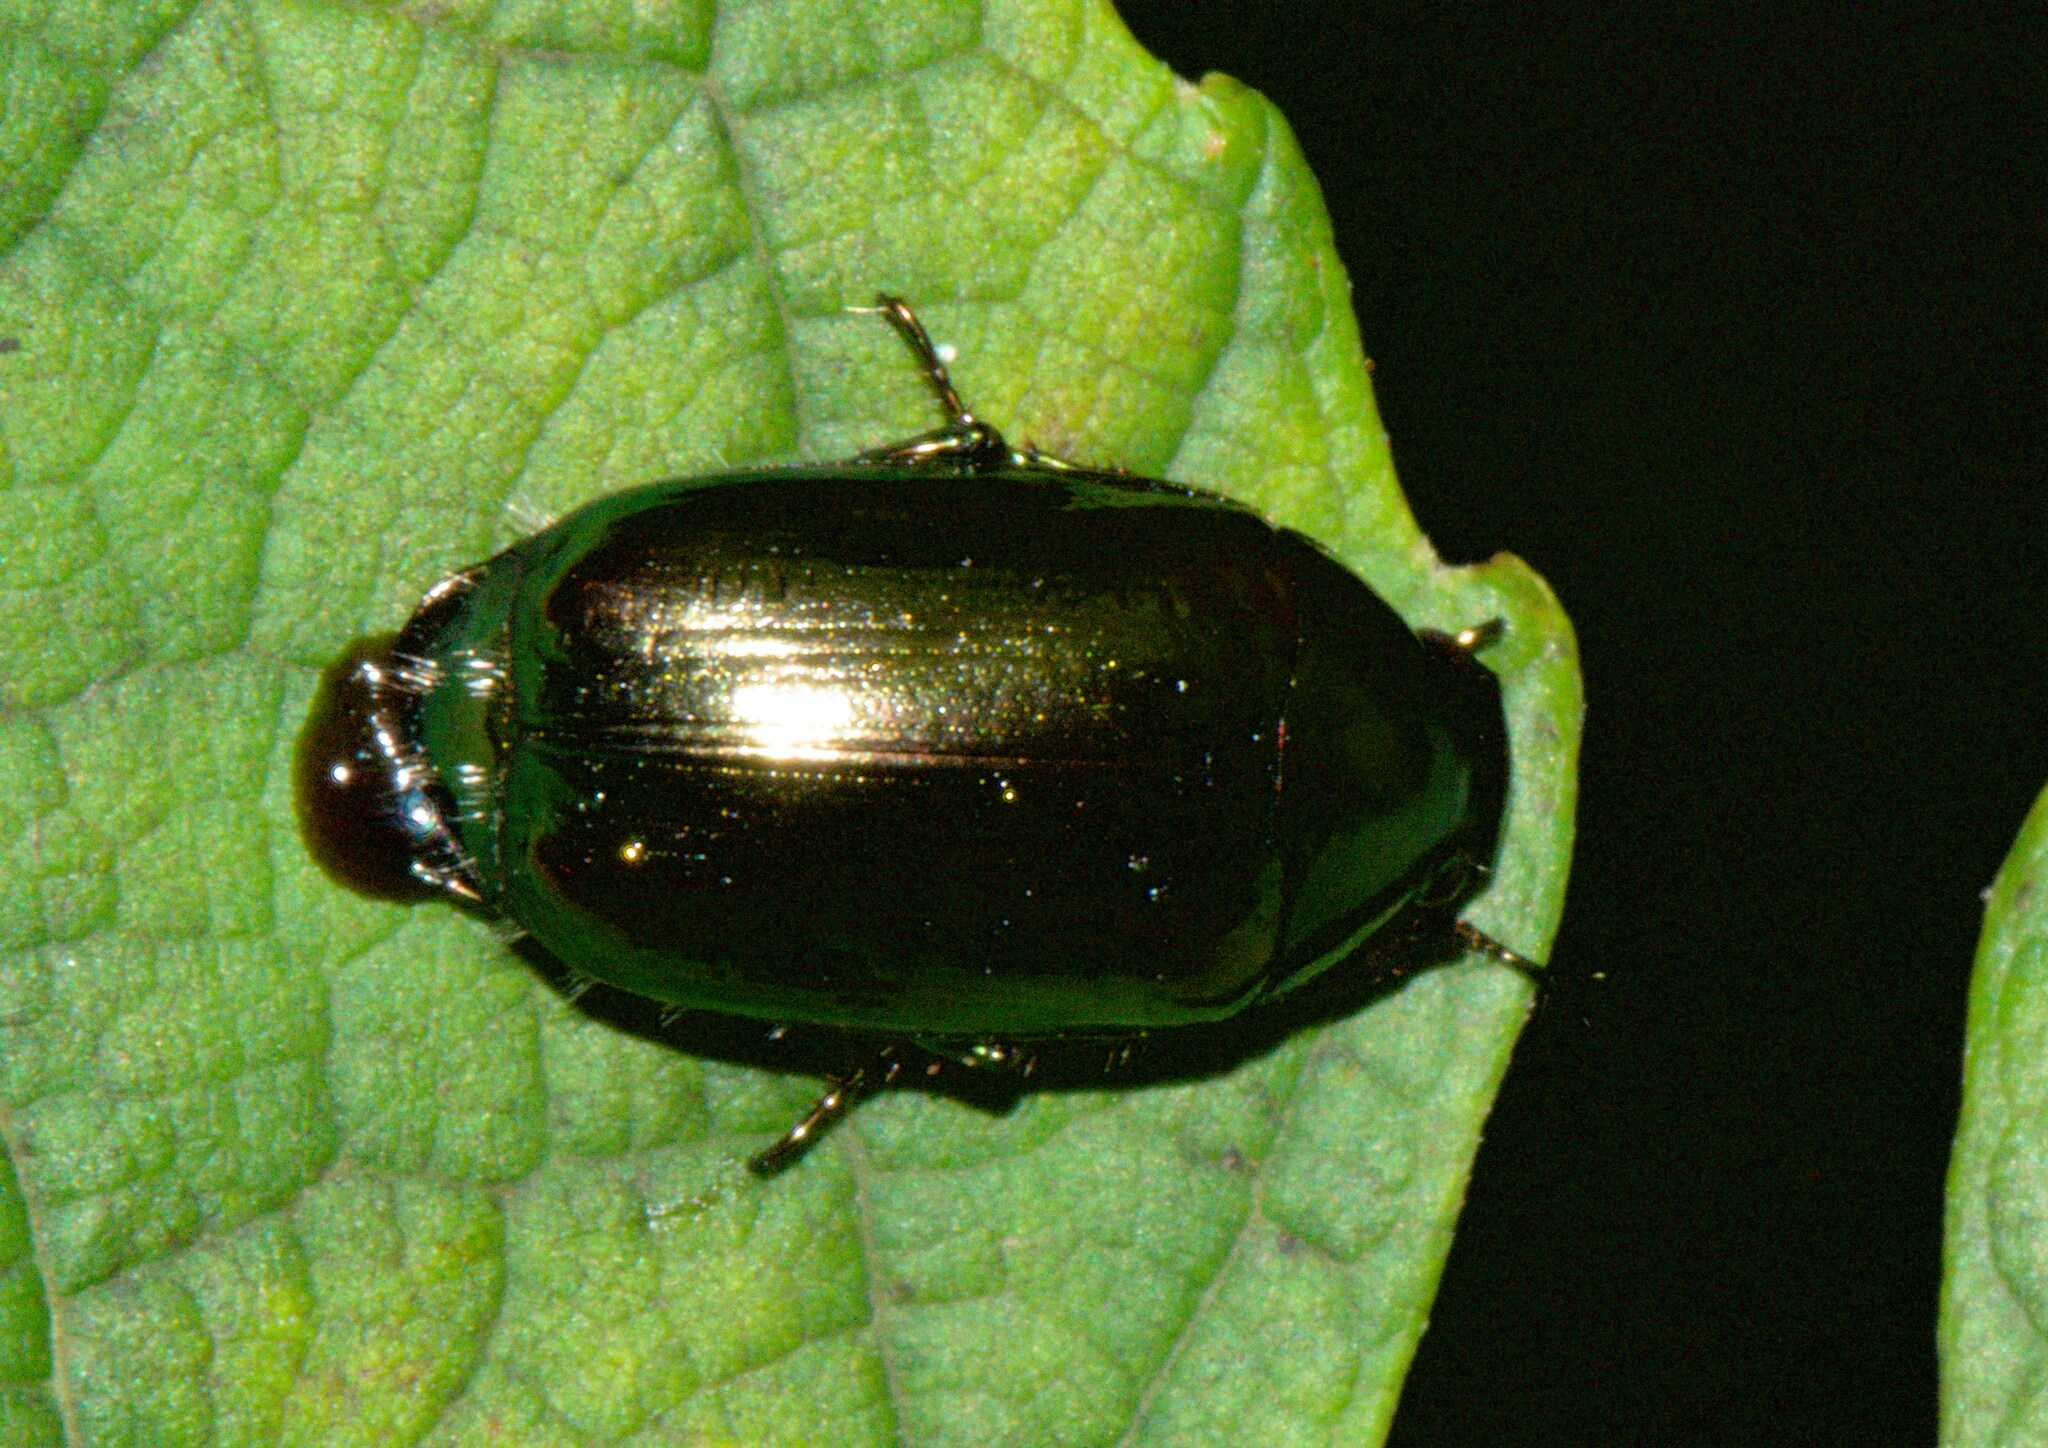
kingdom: Animalia
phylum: Arthropoda
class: Insecta
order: Coleoptera
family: Scarabaeidae
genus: Callistethus
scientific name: Callistethus auronitens
